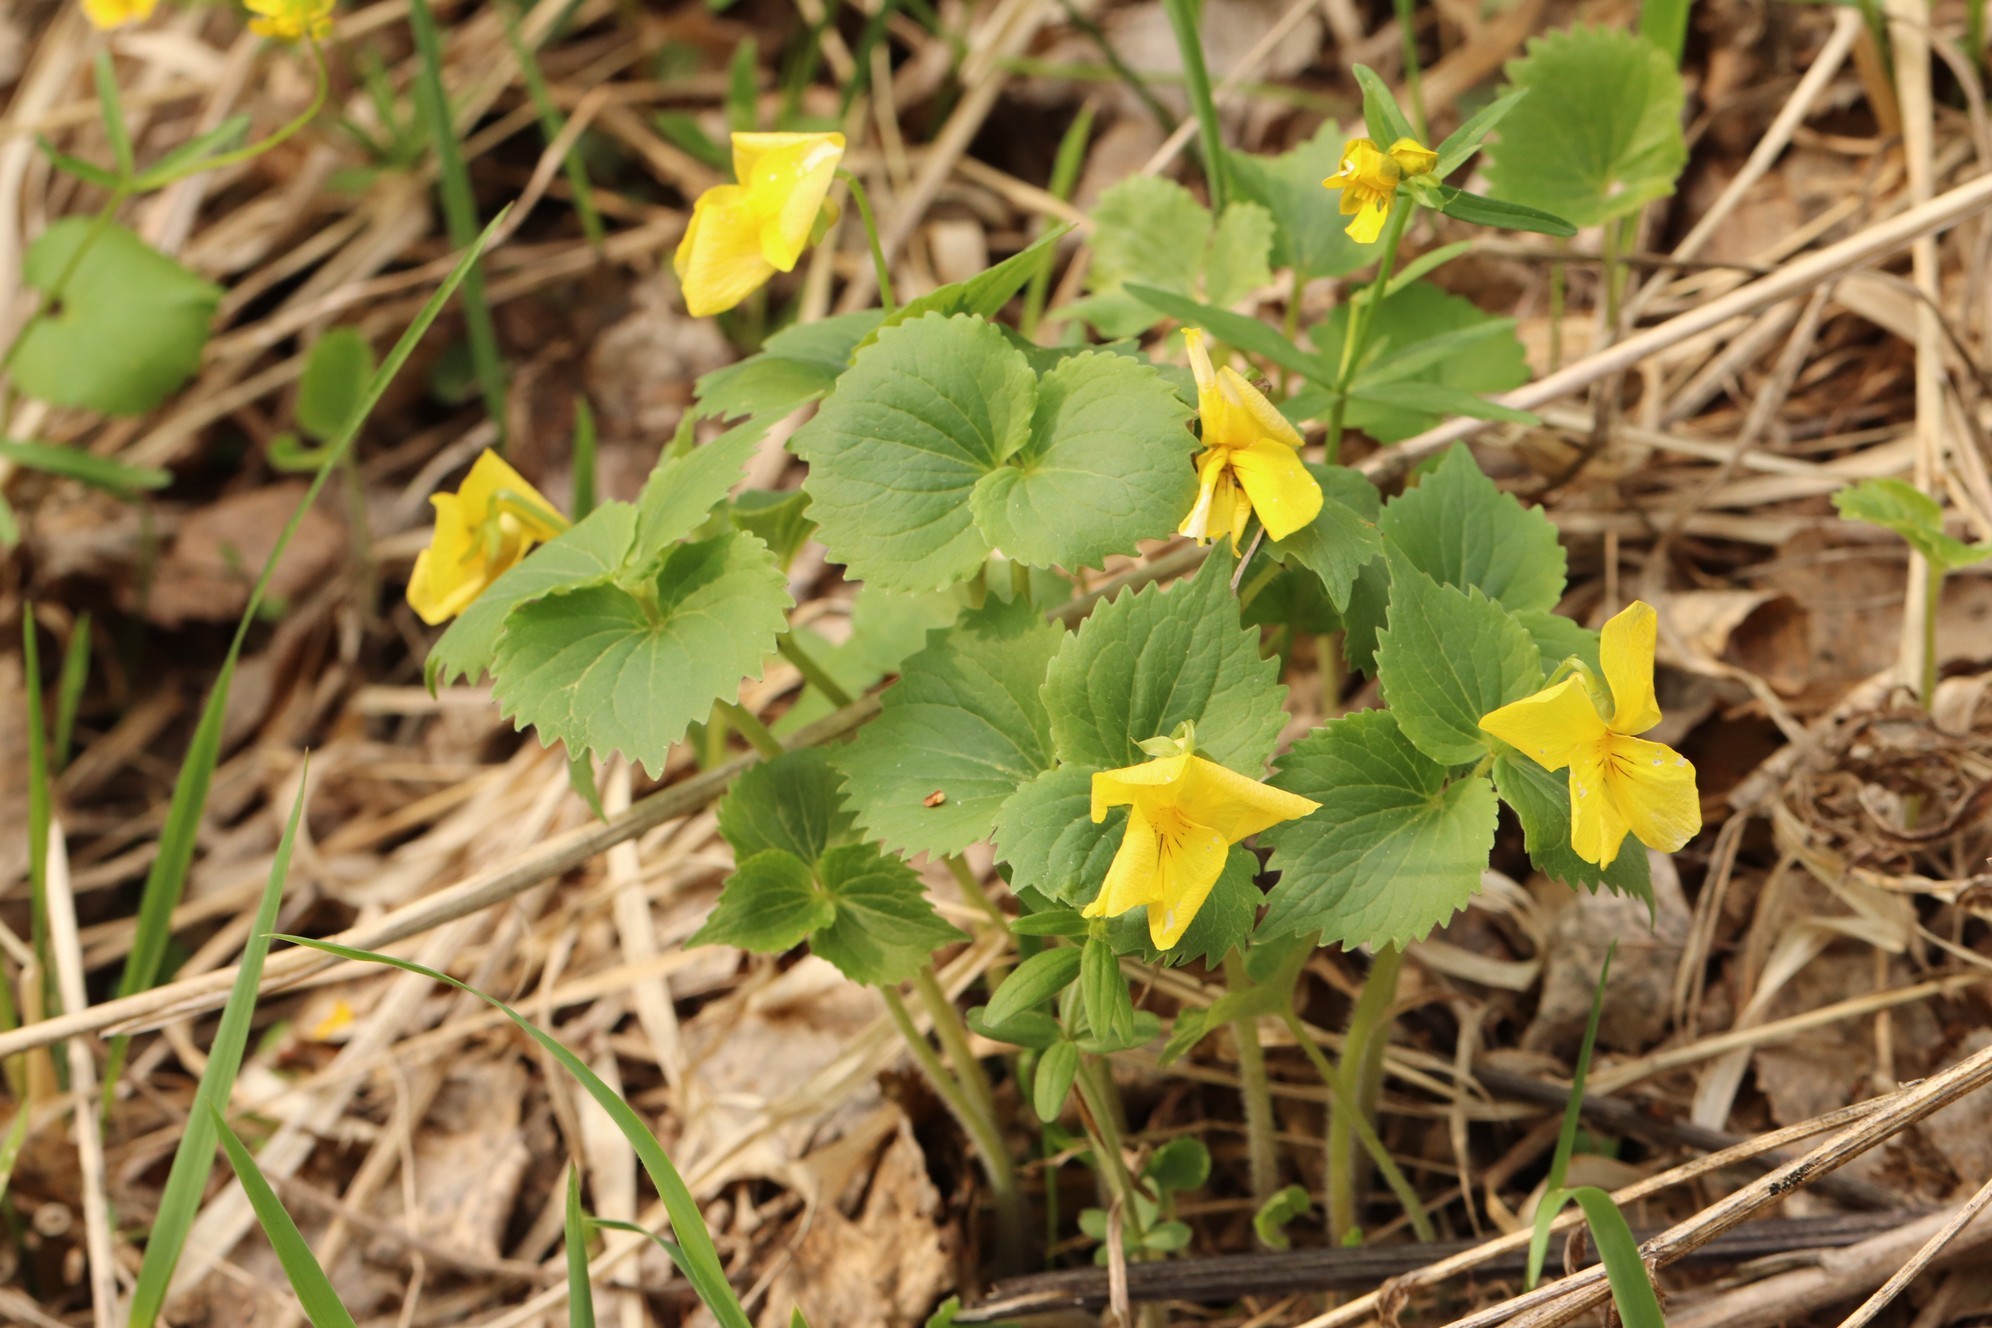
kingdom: Plantae
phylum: Tracheophyta
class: Magnoliopsida
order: Malpighiales
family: Violaceae
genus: Viola
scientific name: Viola uniflora
